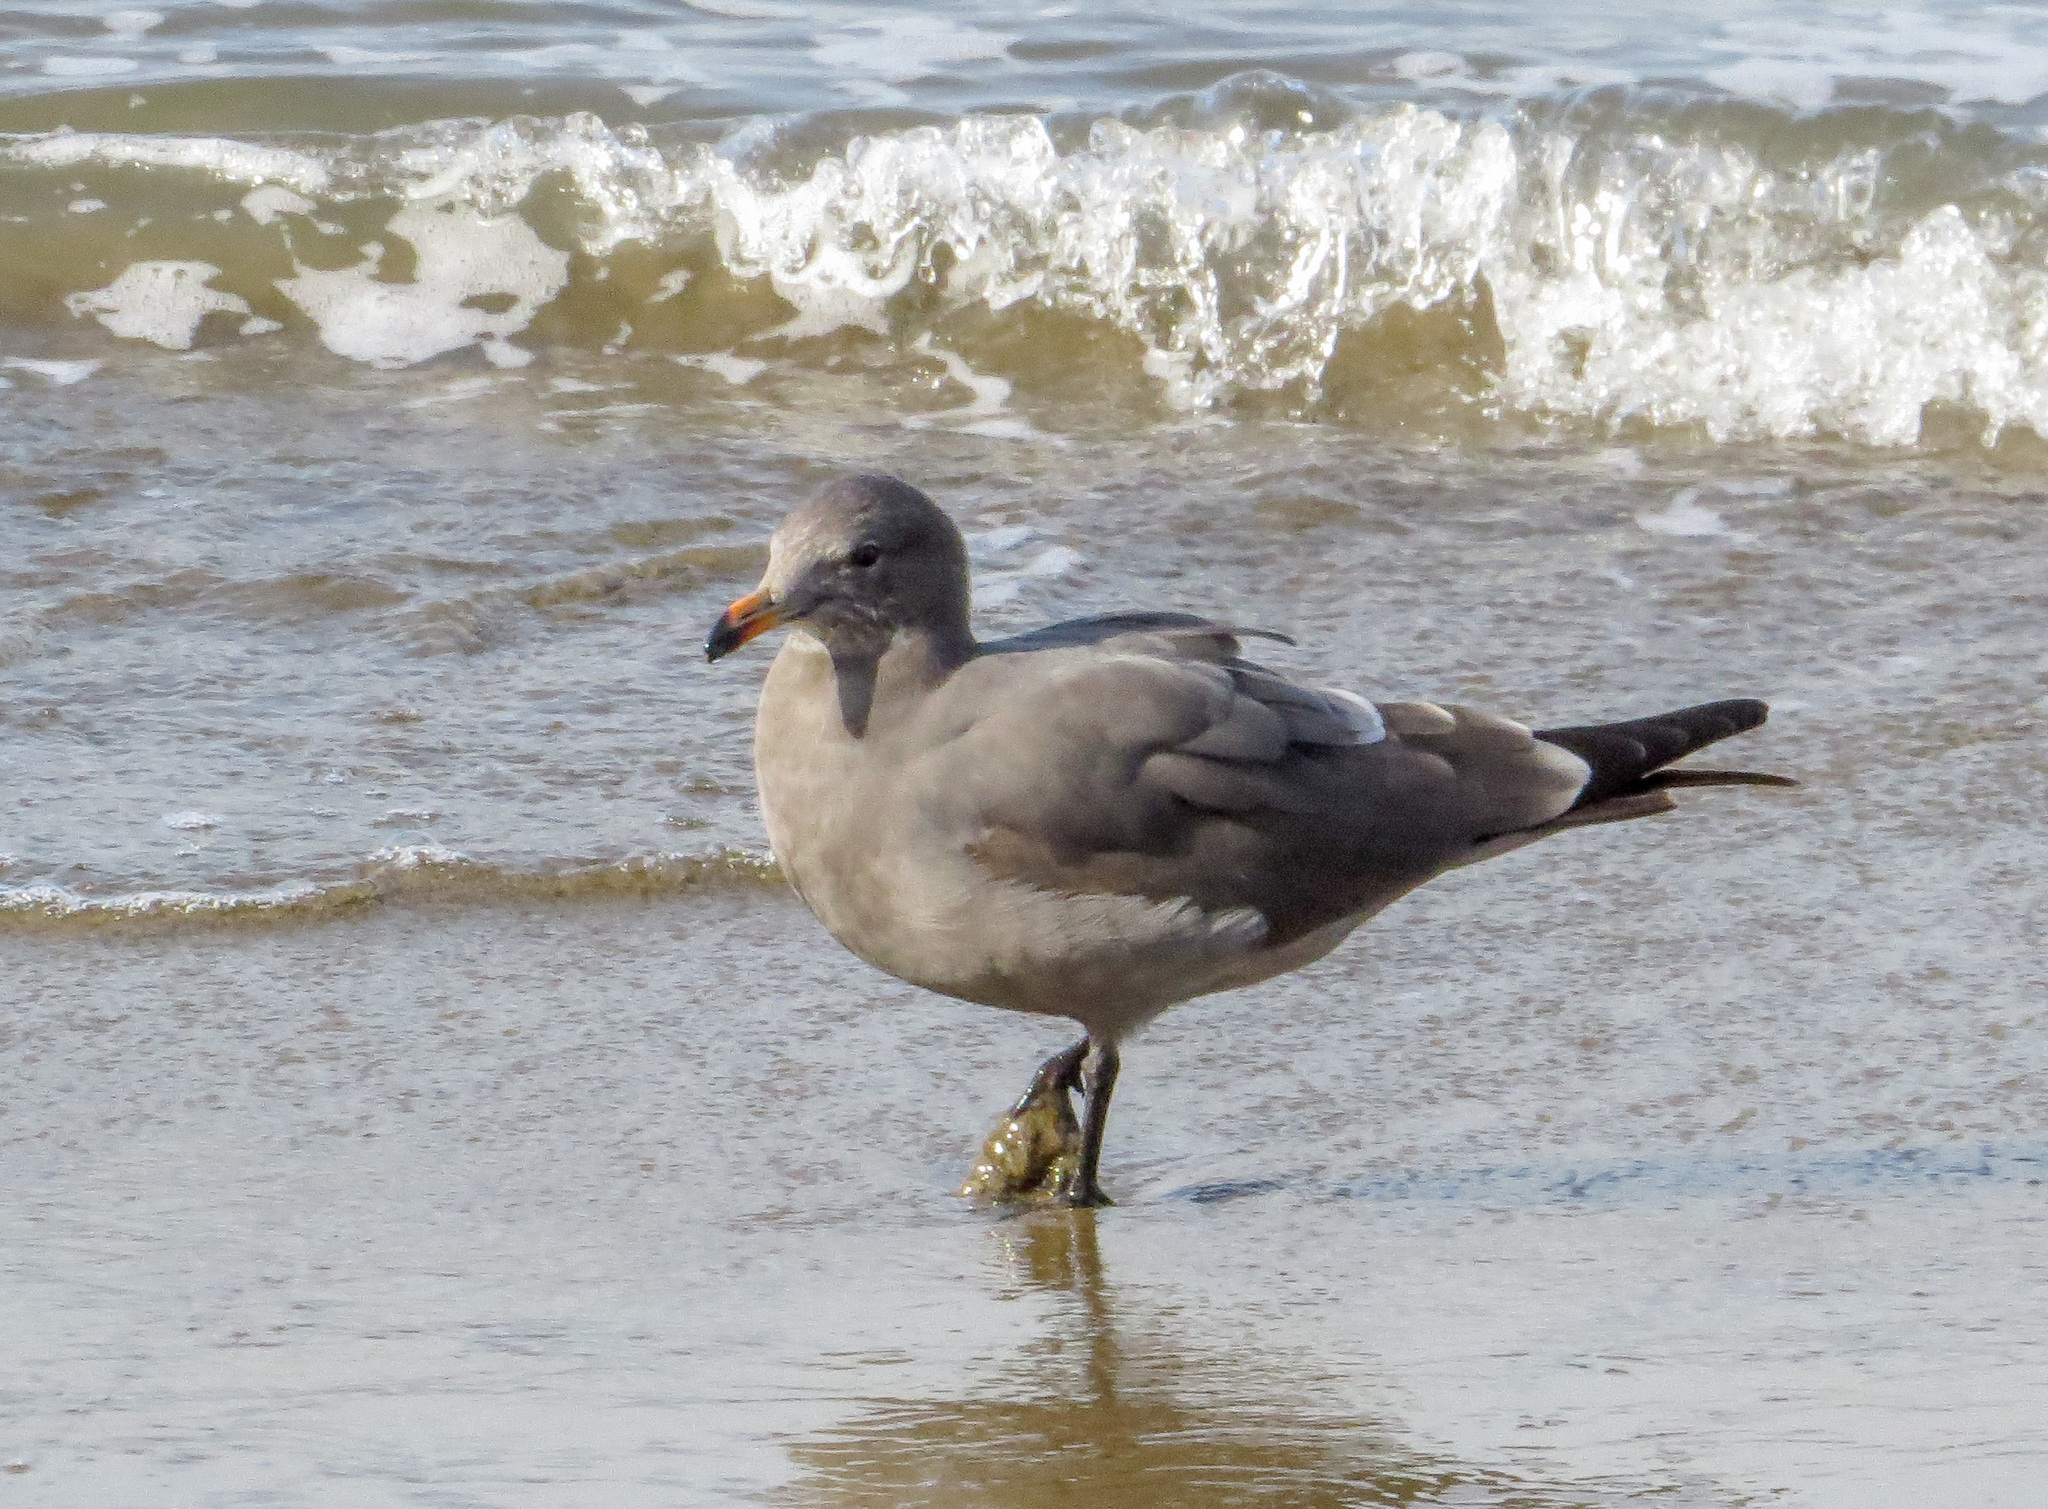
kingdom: Animalia
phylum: Chordata
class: Aves
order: Charadriiformes
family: Laridae
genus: Larus
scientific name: Larus heermanni
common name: Heermann's gull
